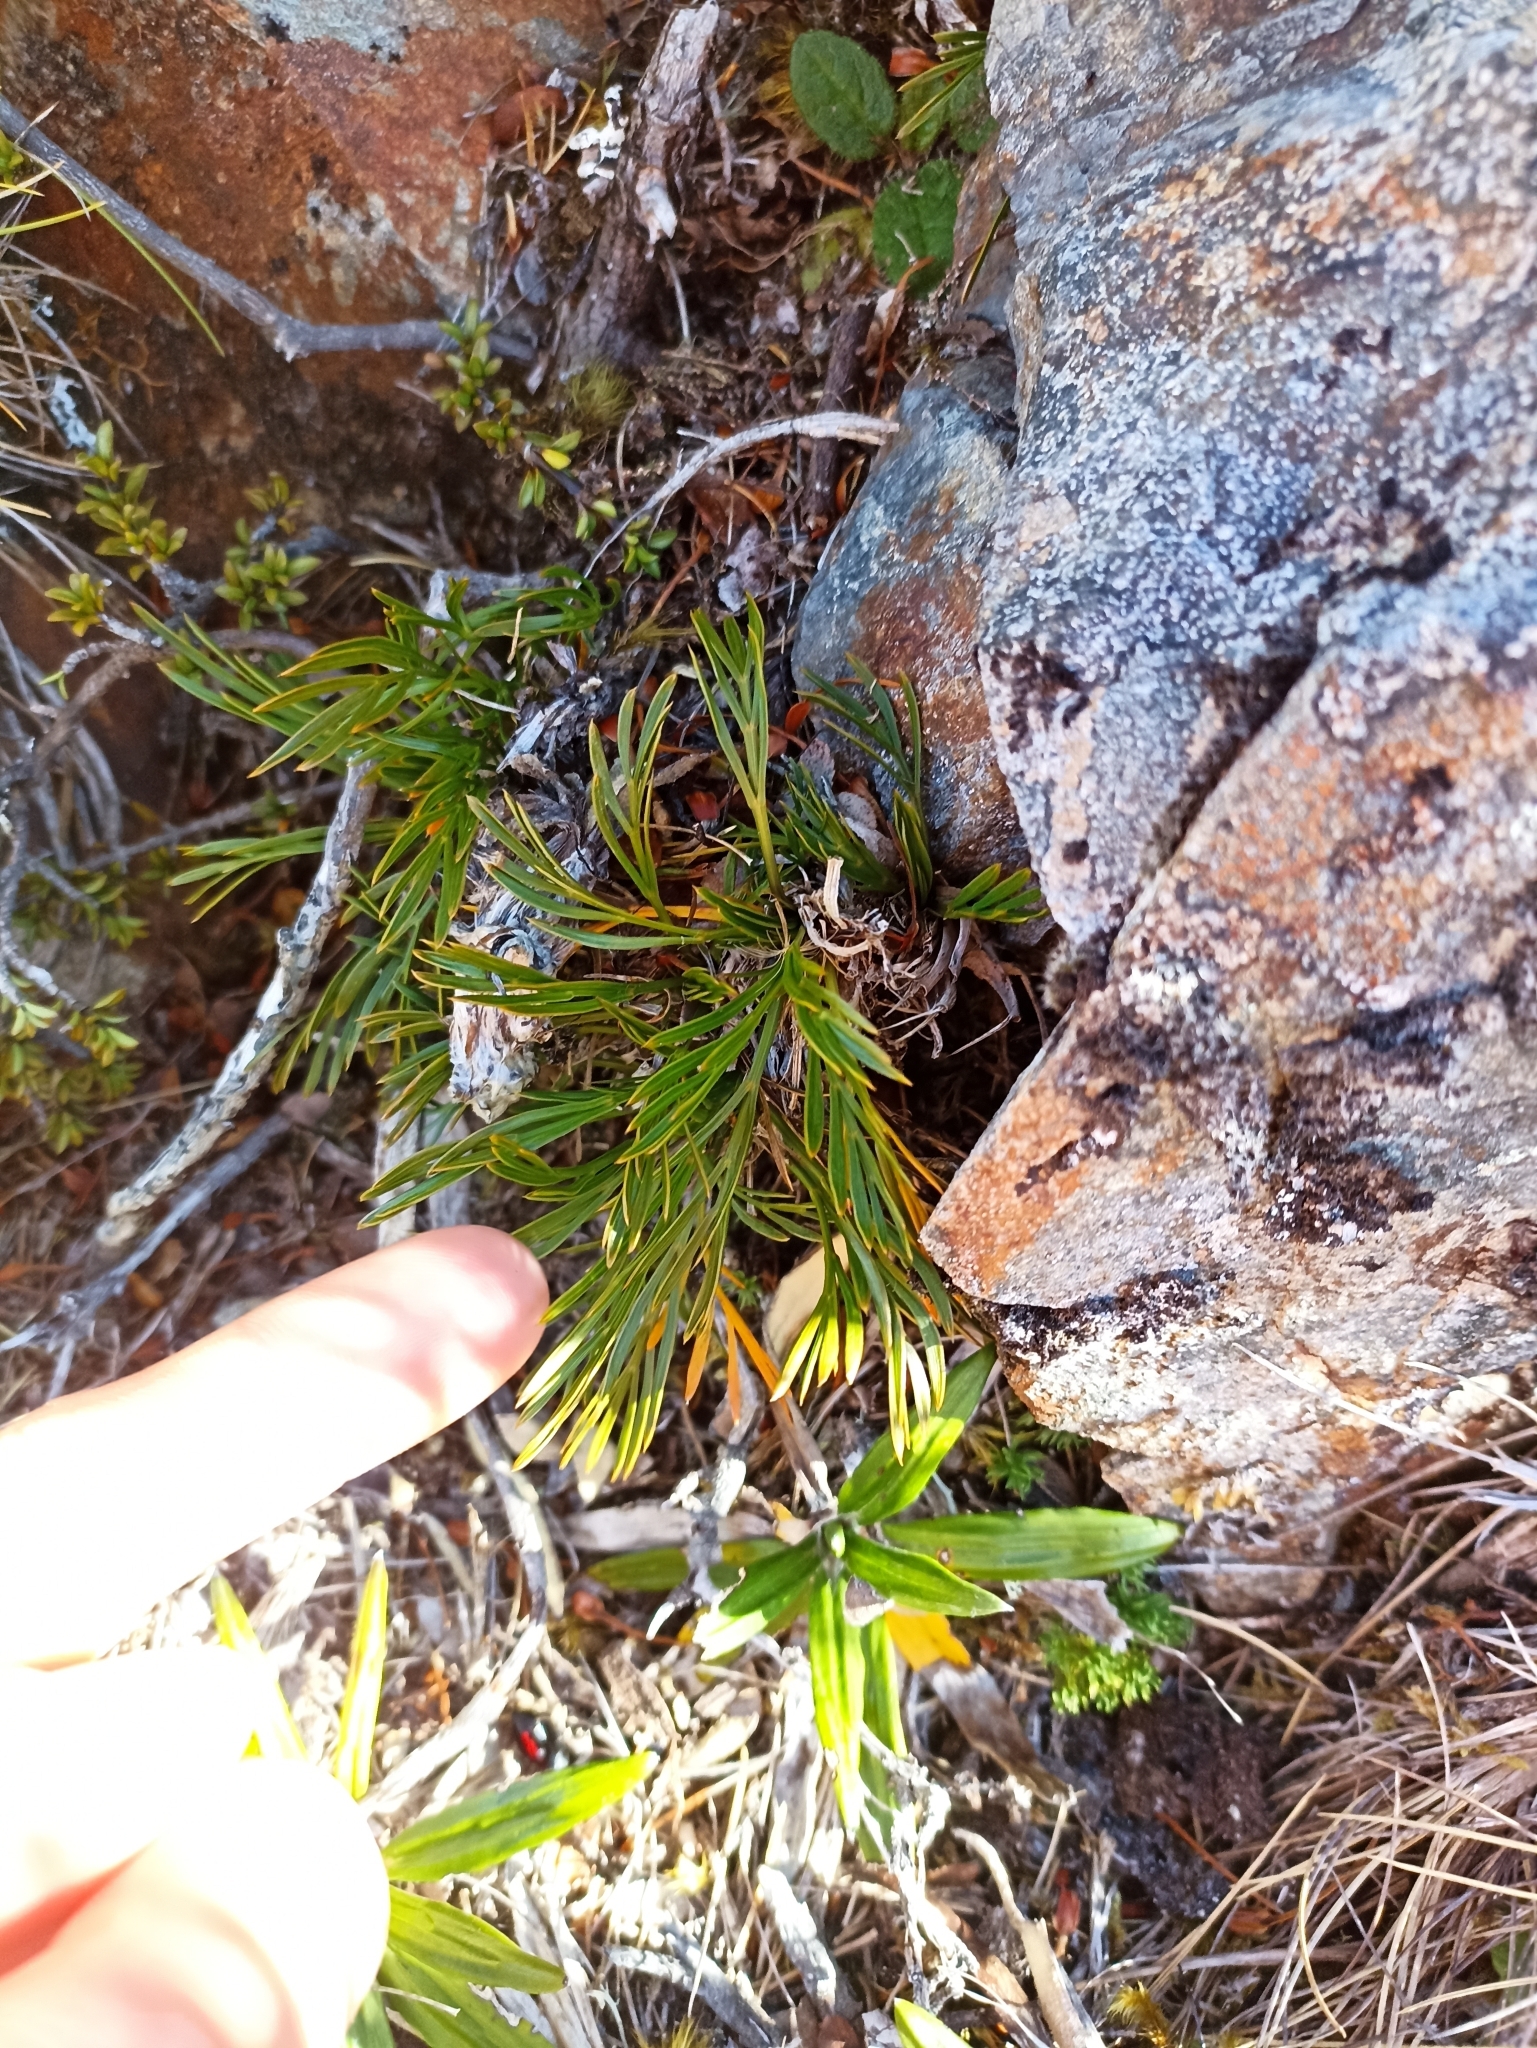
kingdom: Plantae
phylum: Tracheophyta
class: Magnoliopsida
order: Apiales
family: Apiaceae
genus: Aciphylla
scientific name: Aciphylla monroi
